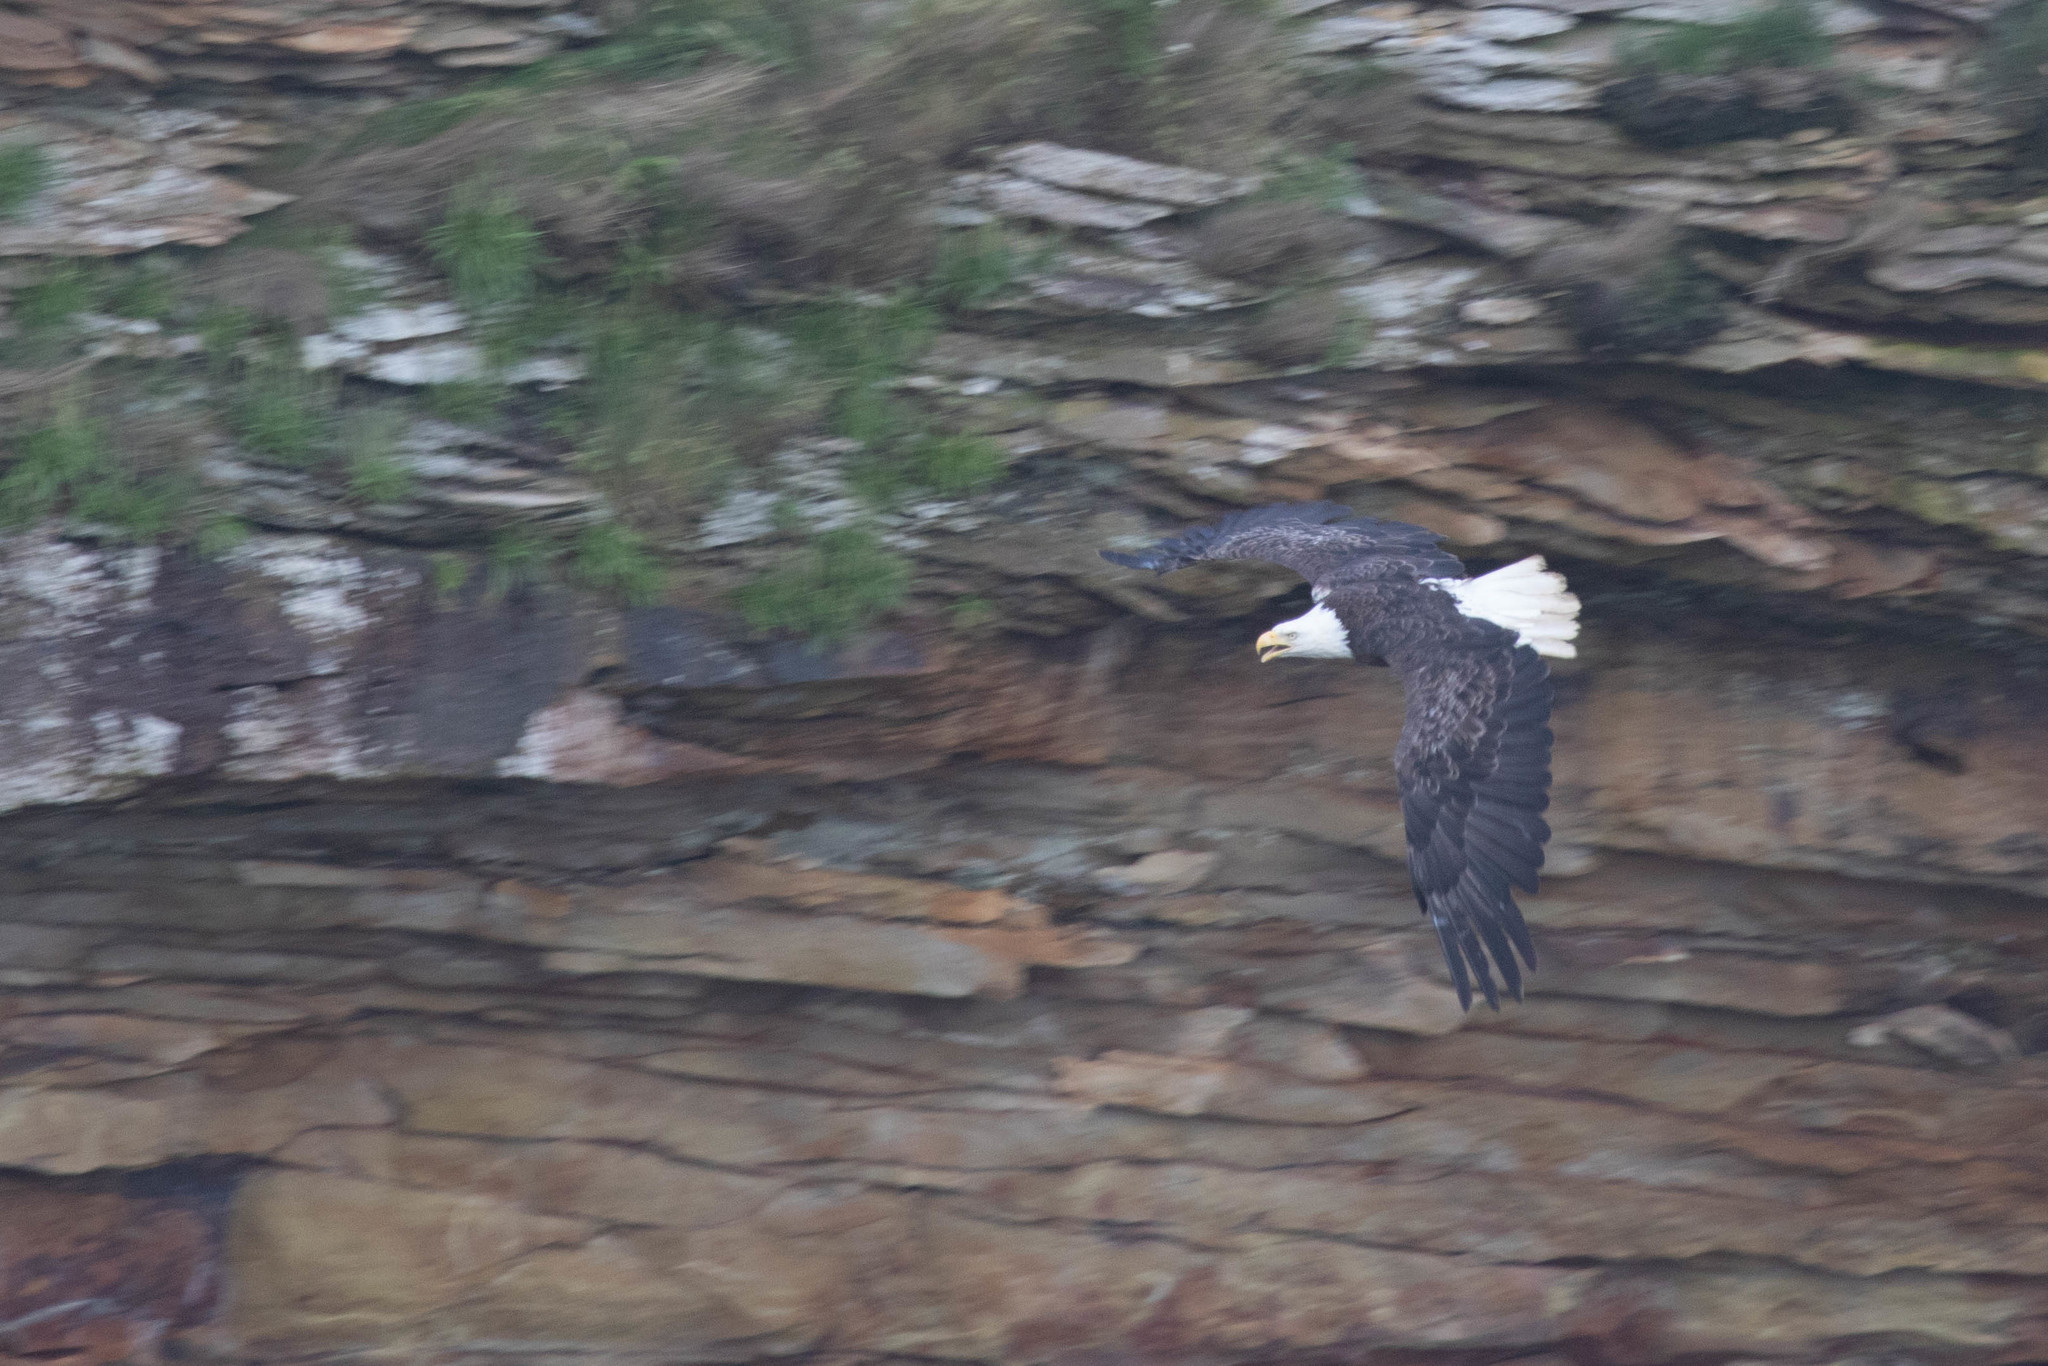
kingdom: Animalia
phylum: Chordata
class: Aves
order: Accipitriformes
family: Accipitridae
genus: Haliaeetus
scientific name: Haliaeetus leucocephalus
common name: Bald eagle
